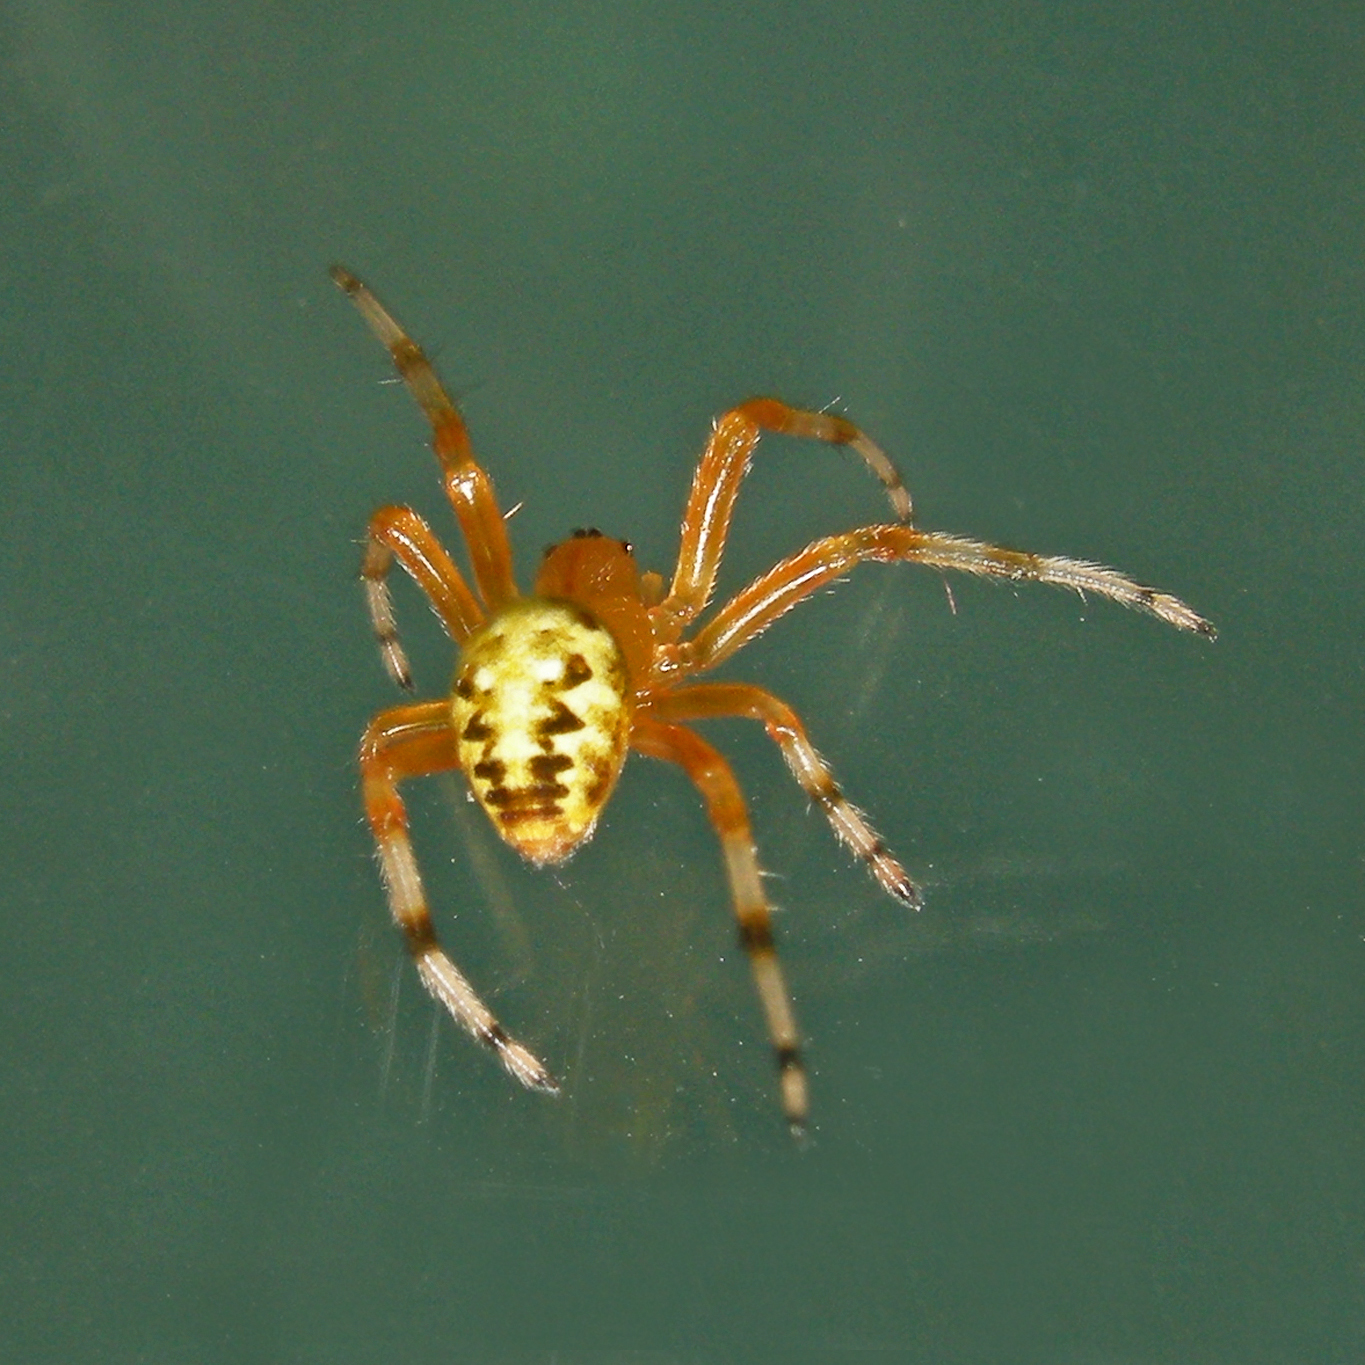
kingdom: Animalia
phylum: Arthropoda
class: Arachnida
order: Araneae
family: Araneidae
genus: Araneus
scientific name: Araneus marmoreus
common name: Marbled orbweaver
